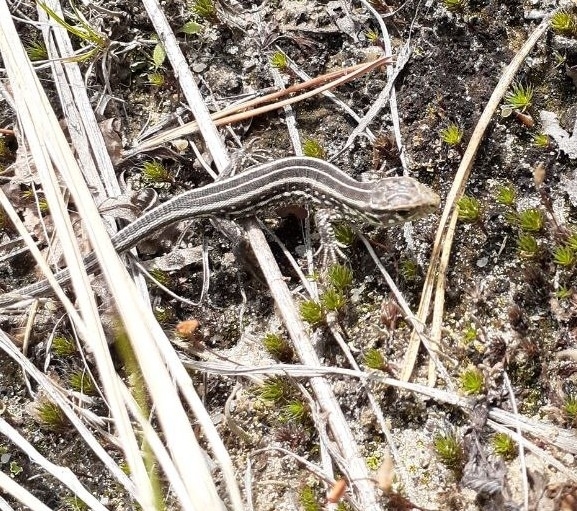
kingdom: Animalia
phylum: Chordata
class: Squamata
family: Lacertidae
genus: Lacerta
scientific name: Lacerta agilis
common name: Sand lizard
